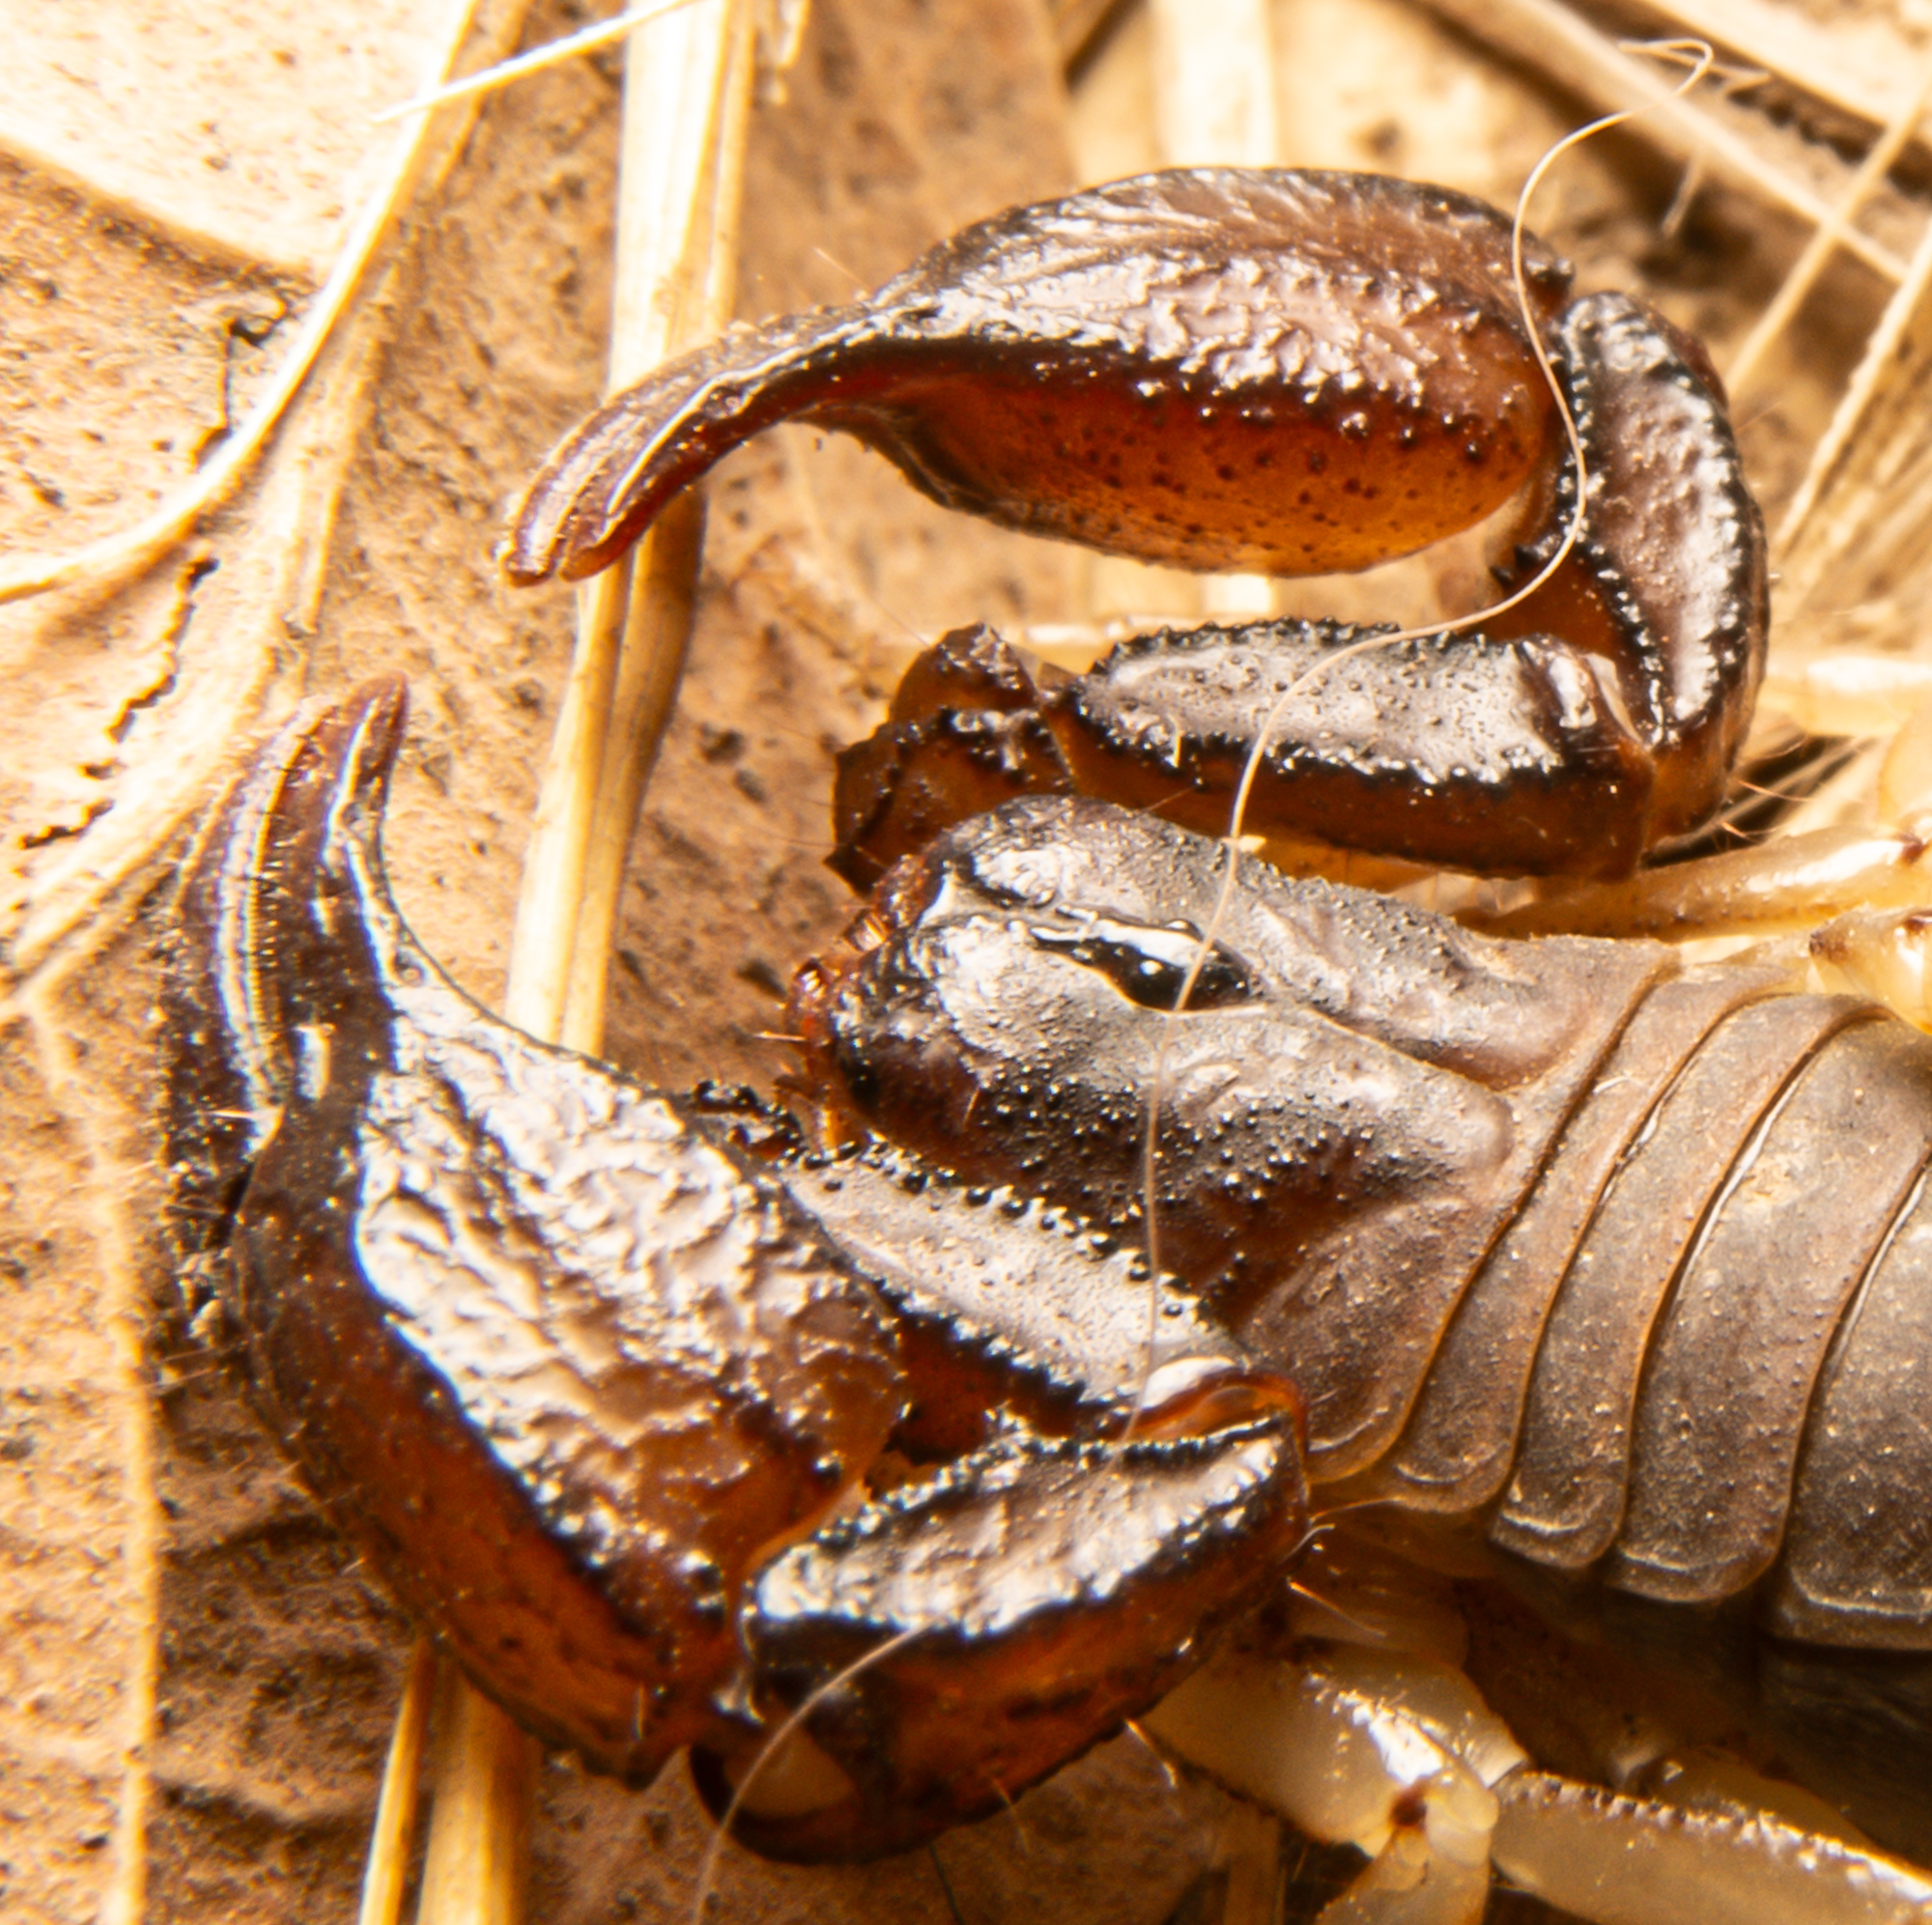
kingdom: Animalia
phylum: Arthropoda
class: Arachnida
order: Scorpiones
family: Chactidae
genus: Uroctonus
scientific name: Uroctonus mordax
